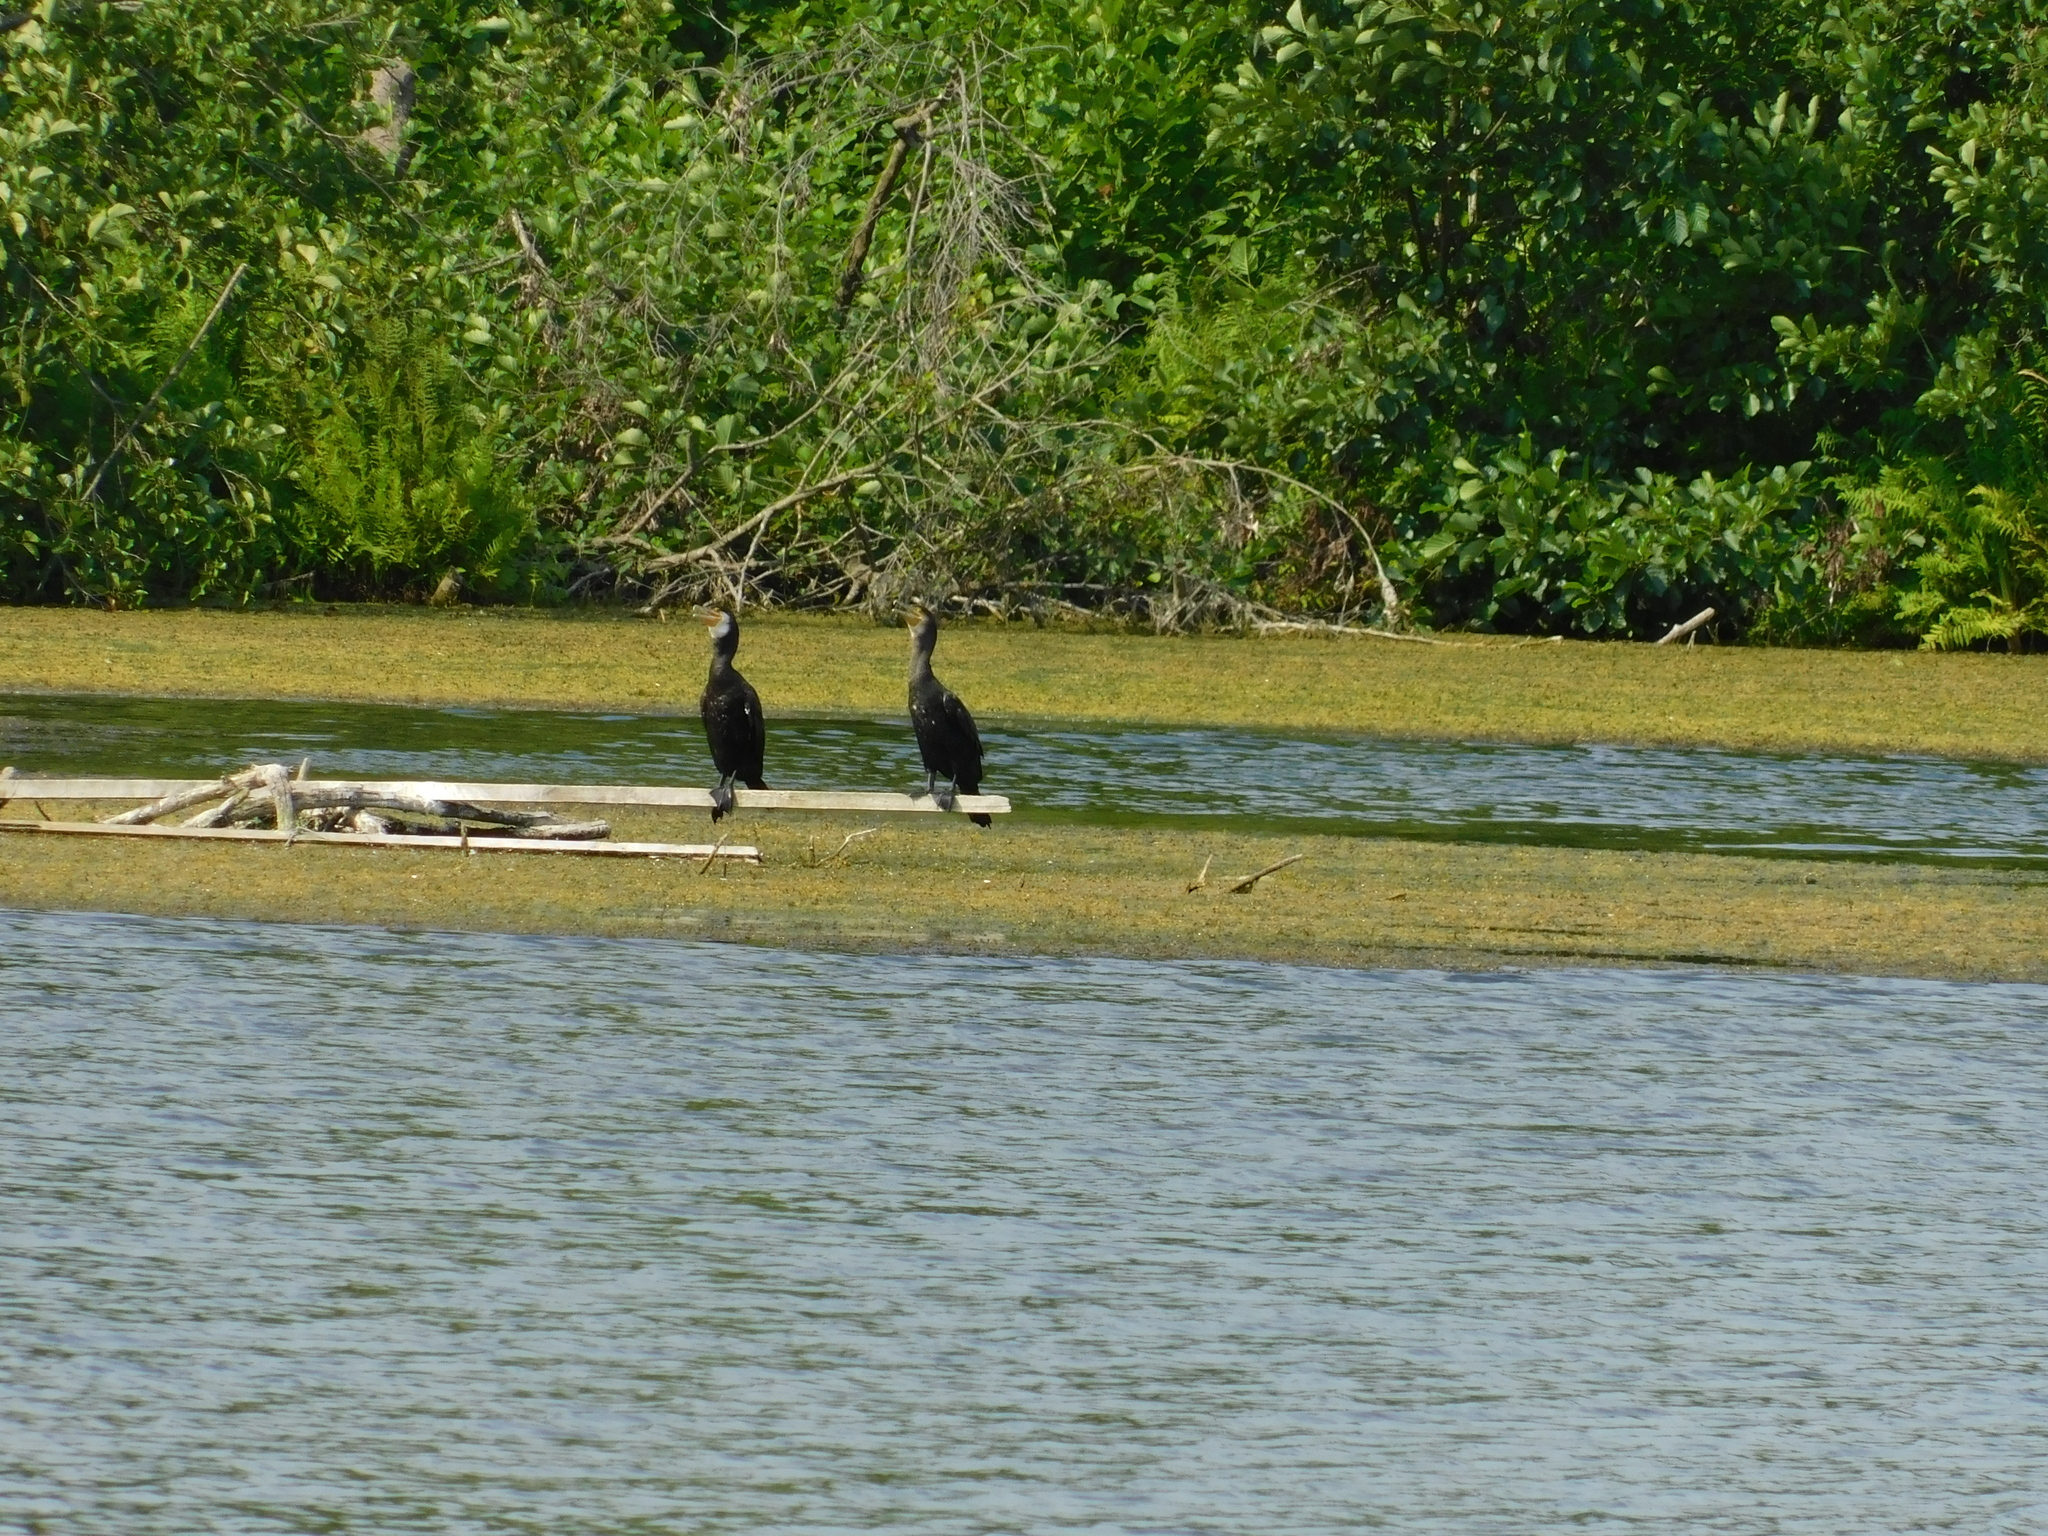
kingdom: Animalia
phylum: Chordata
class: Aves
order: Suliformes
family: Phalacrocoracidae
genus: Phalacrocorax
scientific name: Phalacrocorax carbo
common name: Great cormorant
